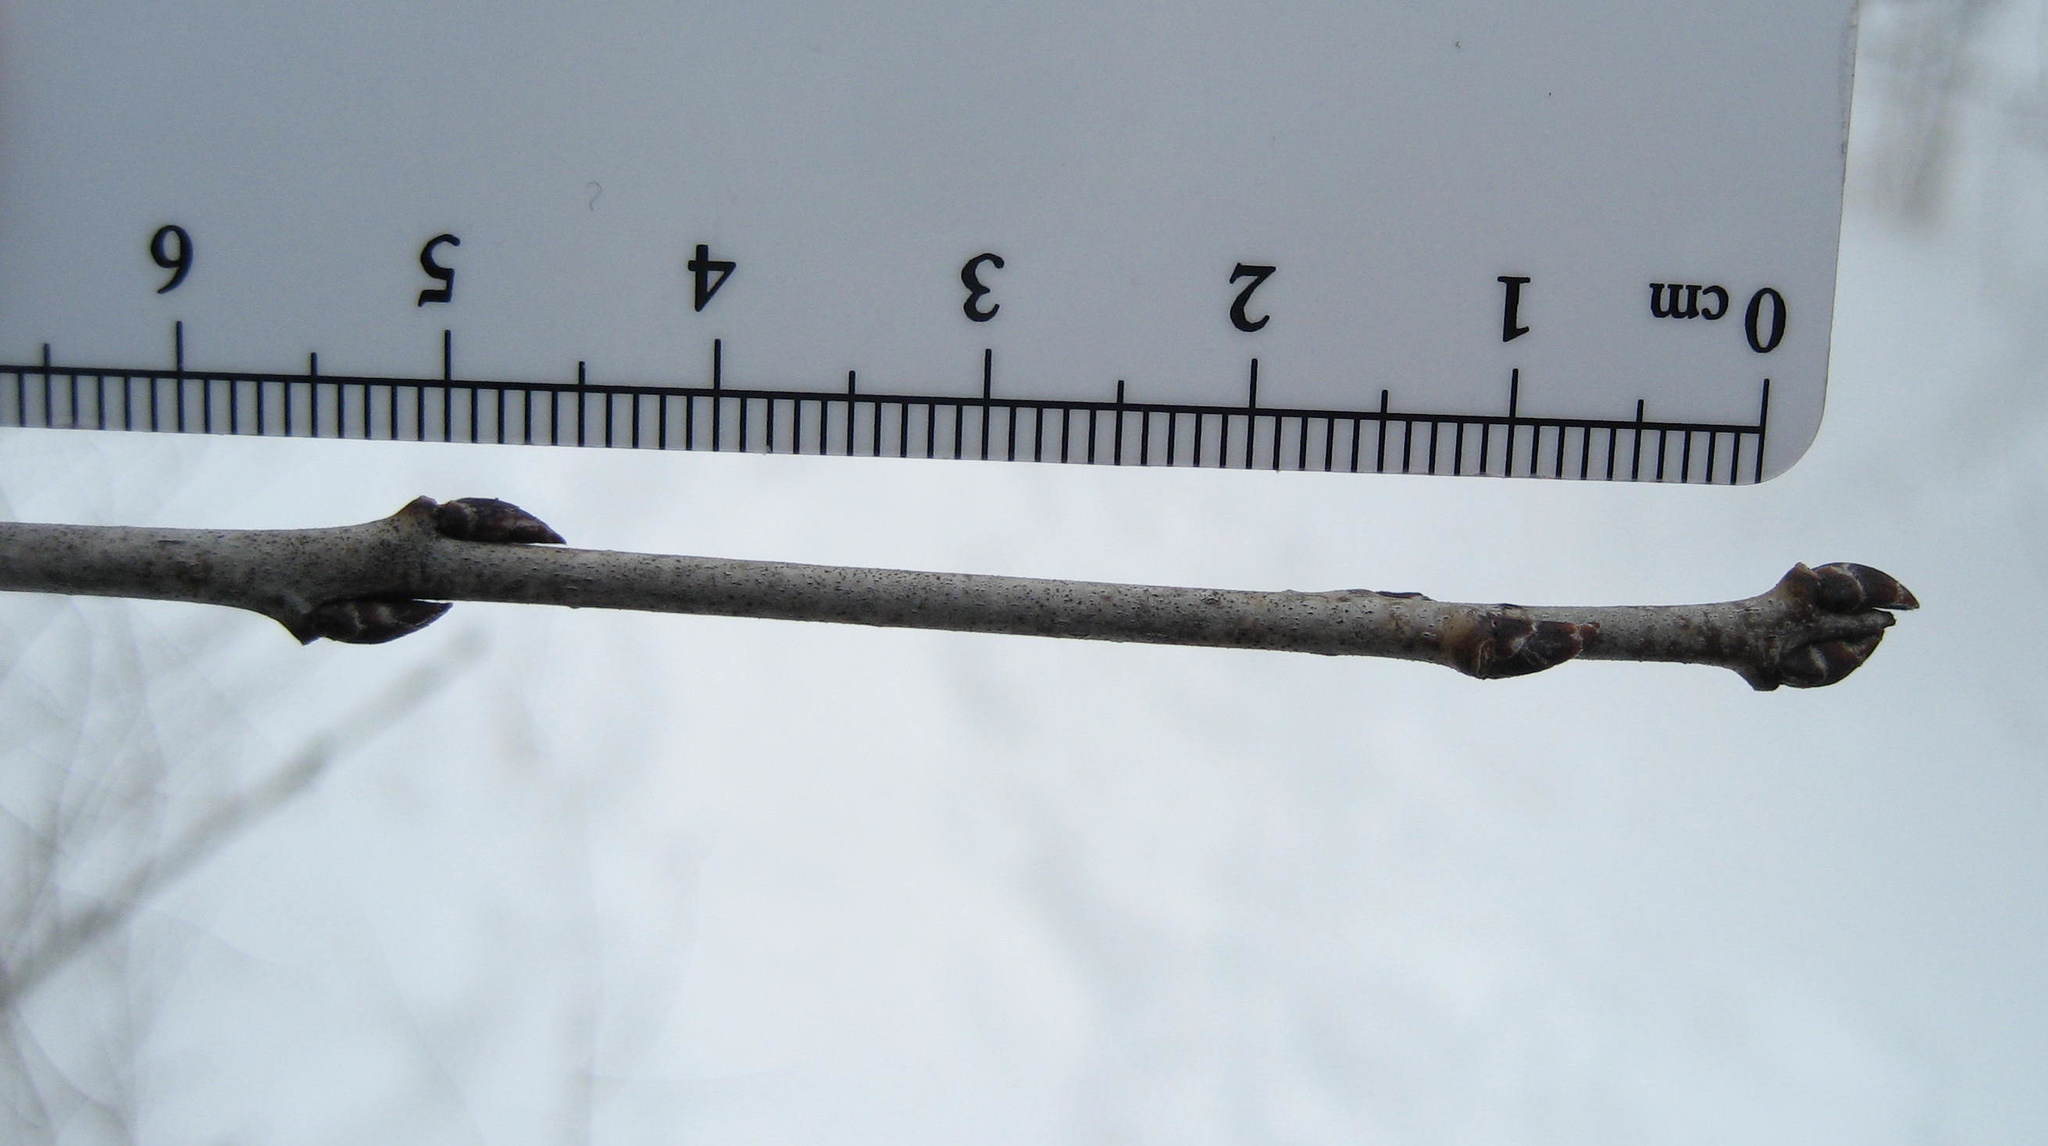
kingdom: Plantae
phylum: Tracheophyta
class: Magnoliopsida
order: Rosales
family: Rhamnaceae
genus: Rhamnus
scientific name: Rhamnus cathartica
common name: Common buckthorn
